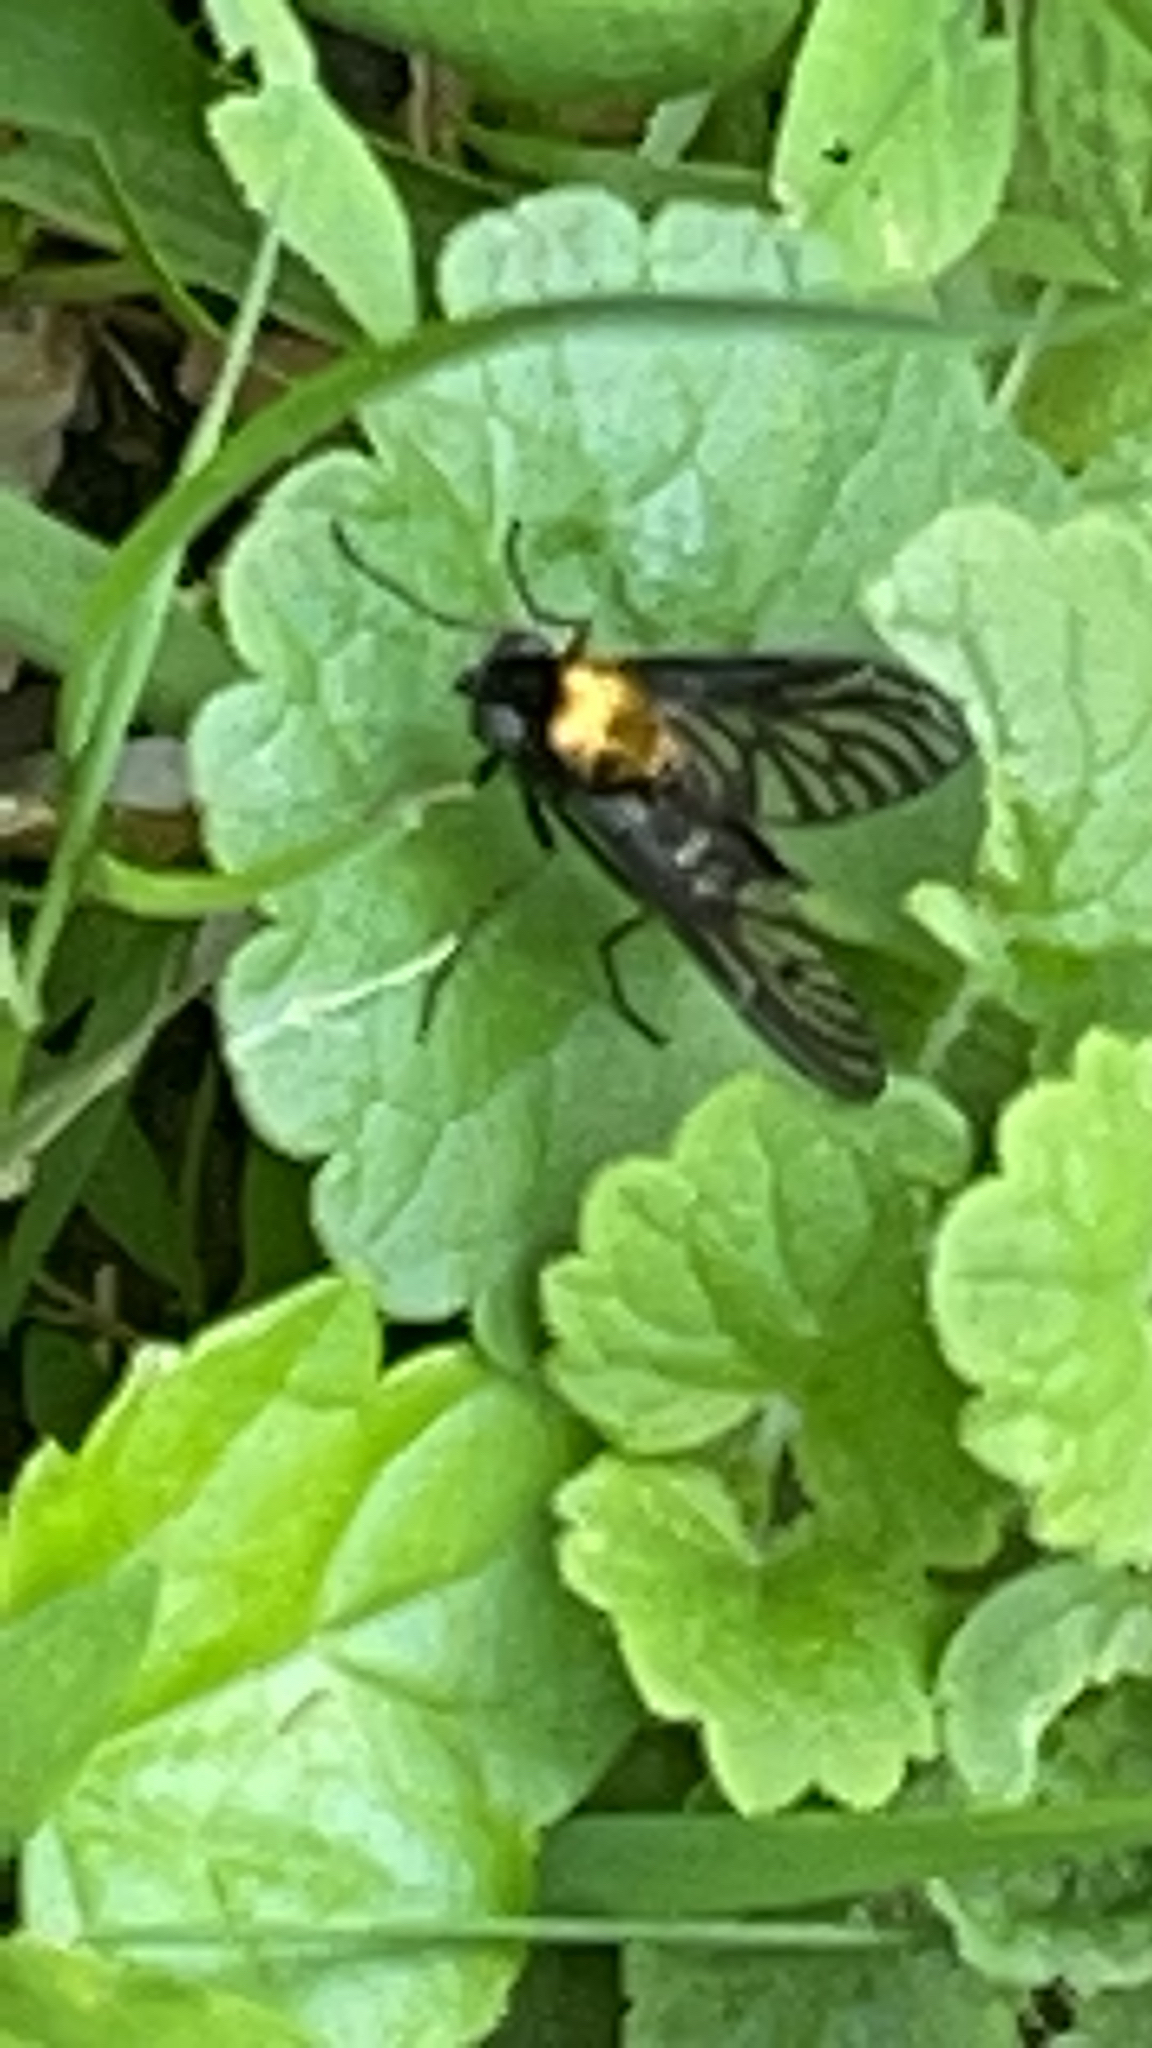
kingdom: Animalia
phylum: Arthropoda
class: Insecta
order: Diptera
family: Rhagionidae
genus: Chrysopilus
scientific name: Chrysopilus thoracicus
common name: Golden-backed snipe fly
